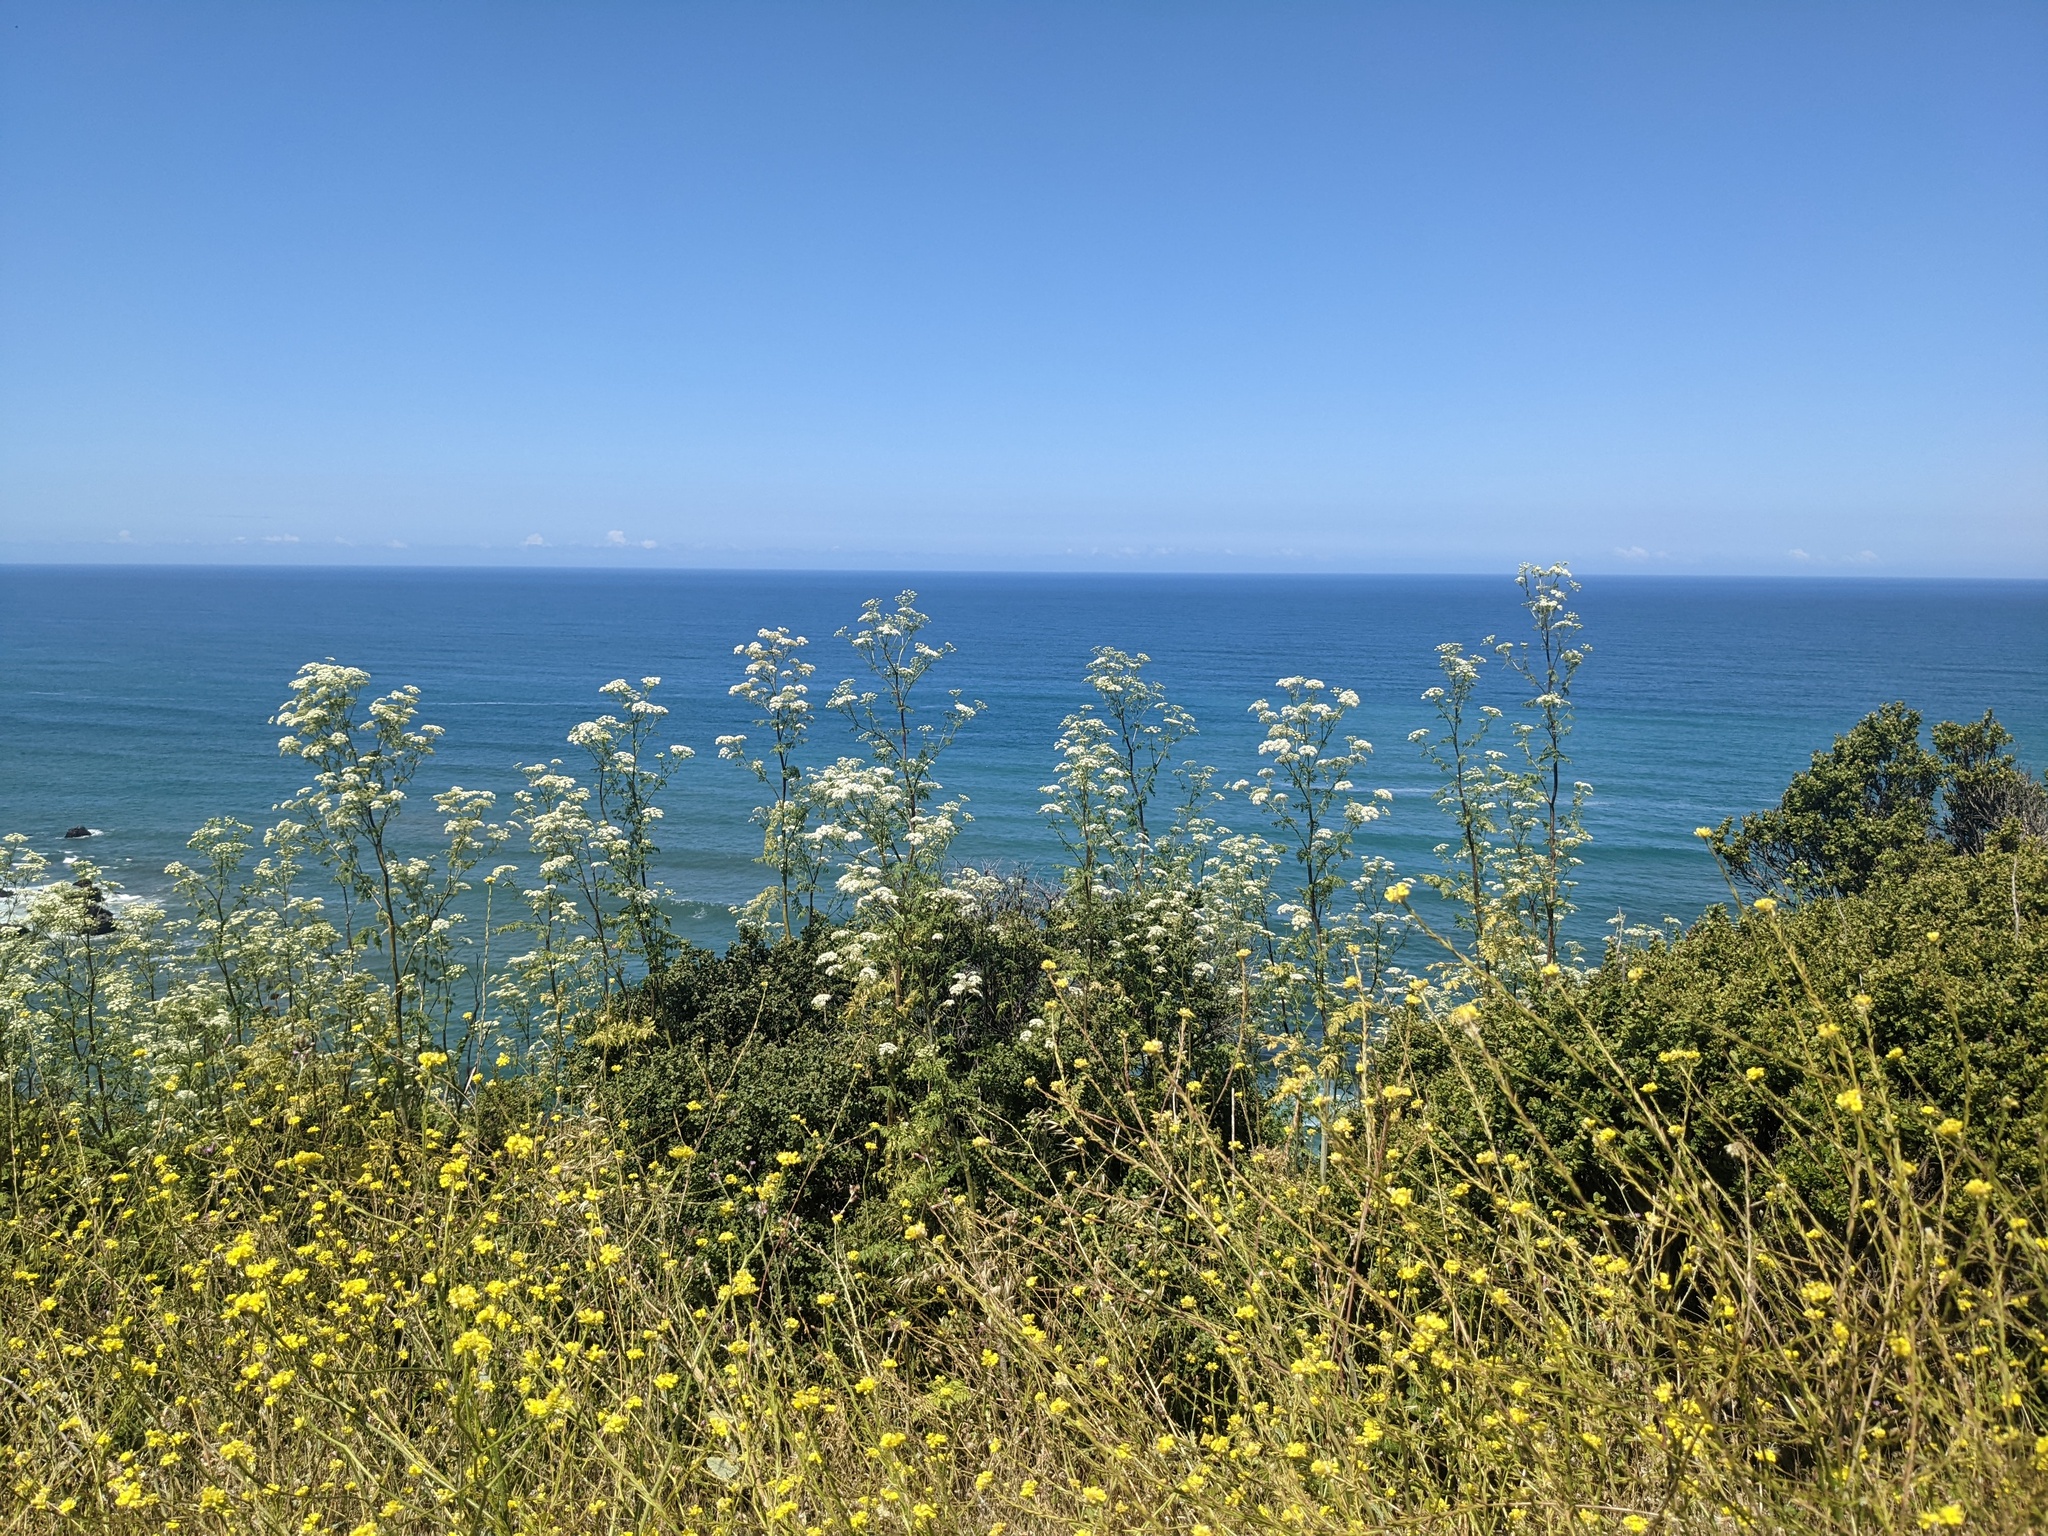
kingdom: Plantae
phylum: Tracheophyta
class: Magnoliopsida
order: Apiales
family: Apiaceae
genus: Conium
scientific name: Conium maculatum
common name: Hemlock
